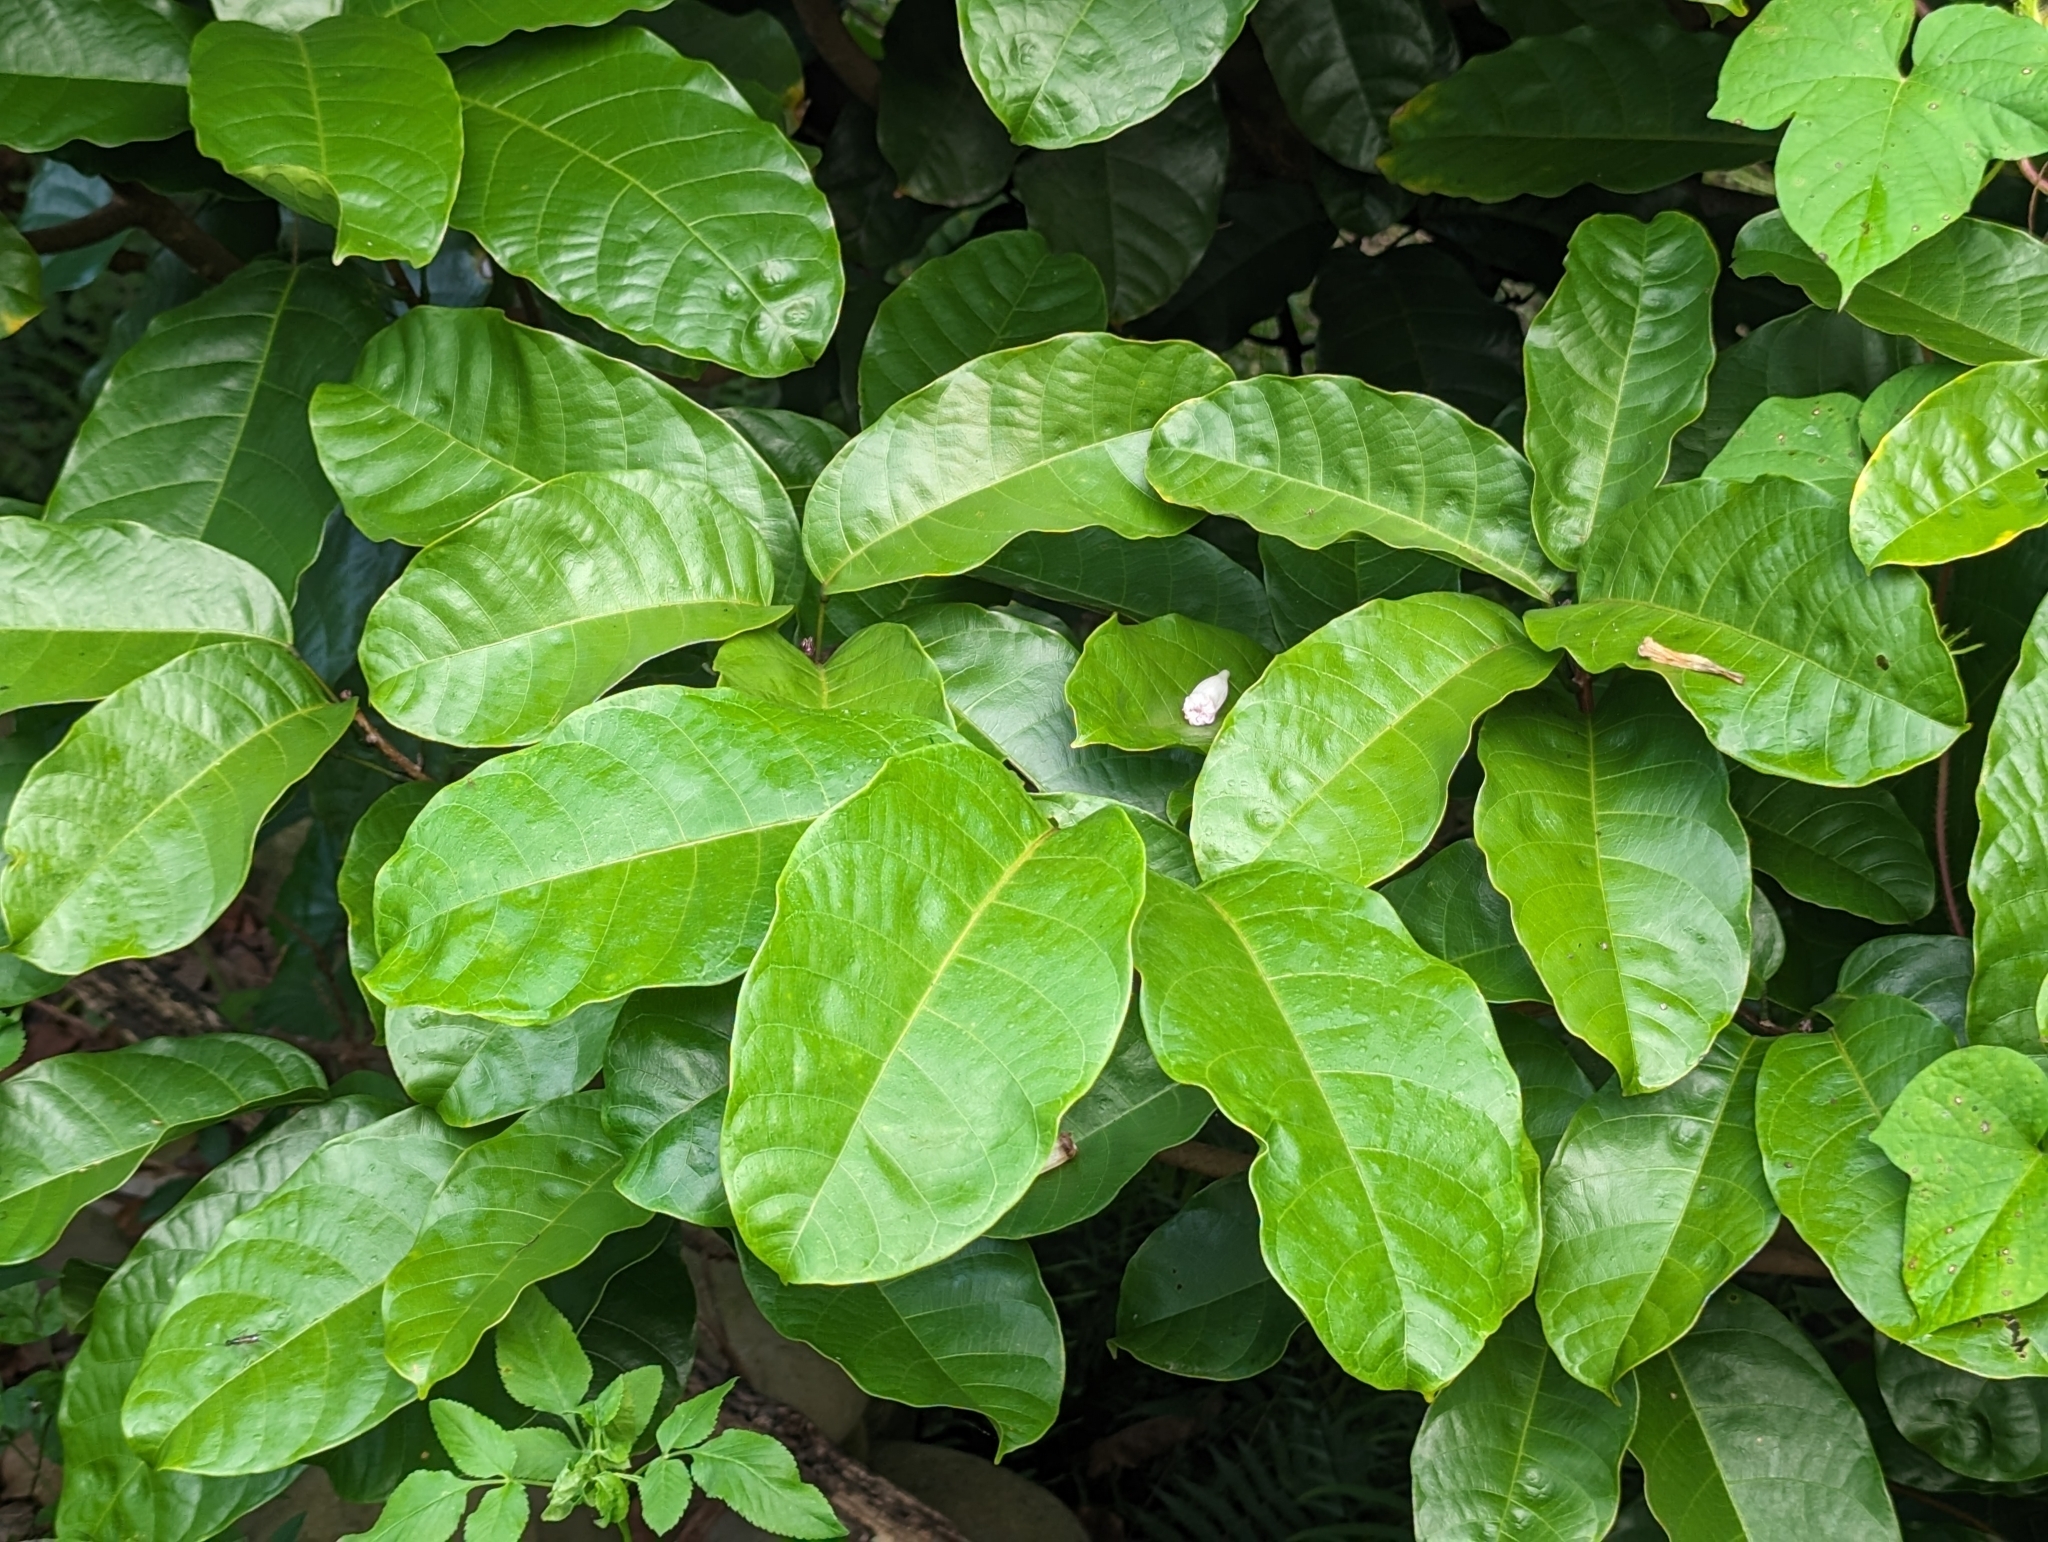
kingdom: Plantae
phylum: Tracheophyta
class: Magnoliopsida
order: Malvales
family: Malvaceae
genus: Sterculia
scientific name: Sterculia monosperma
